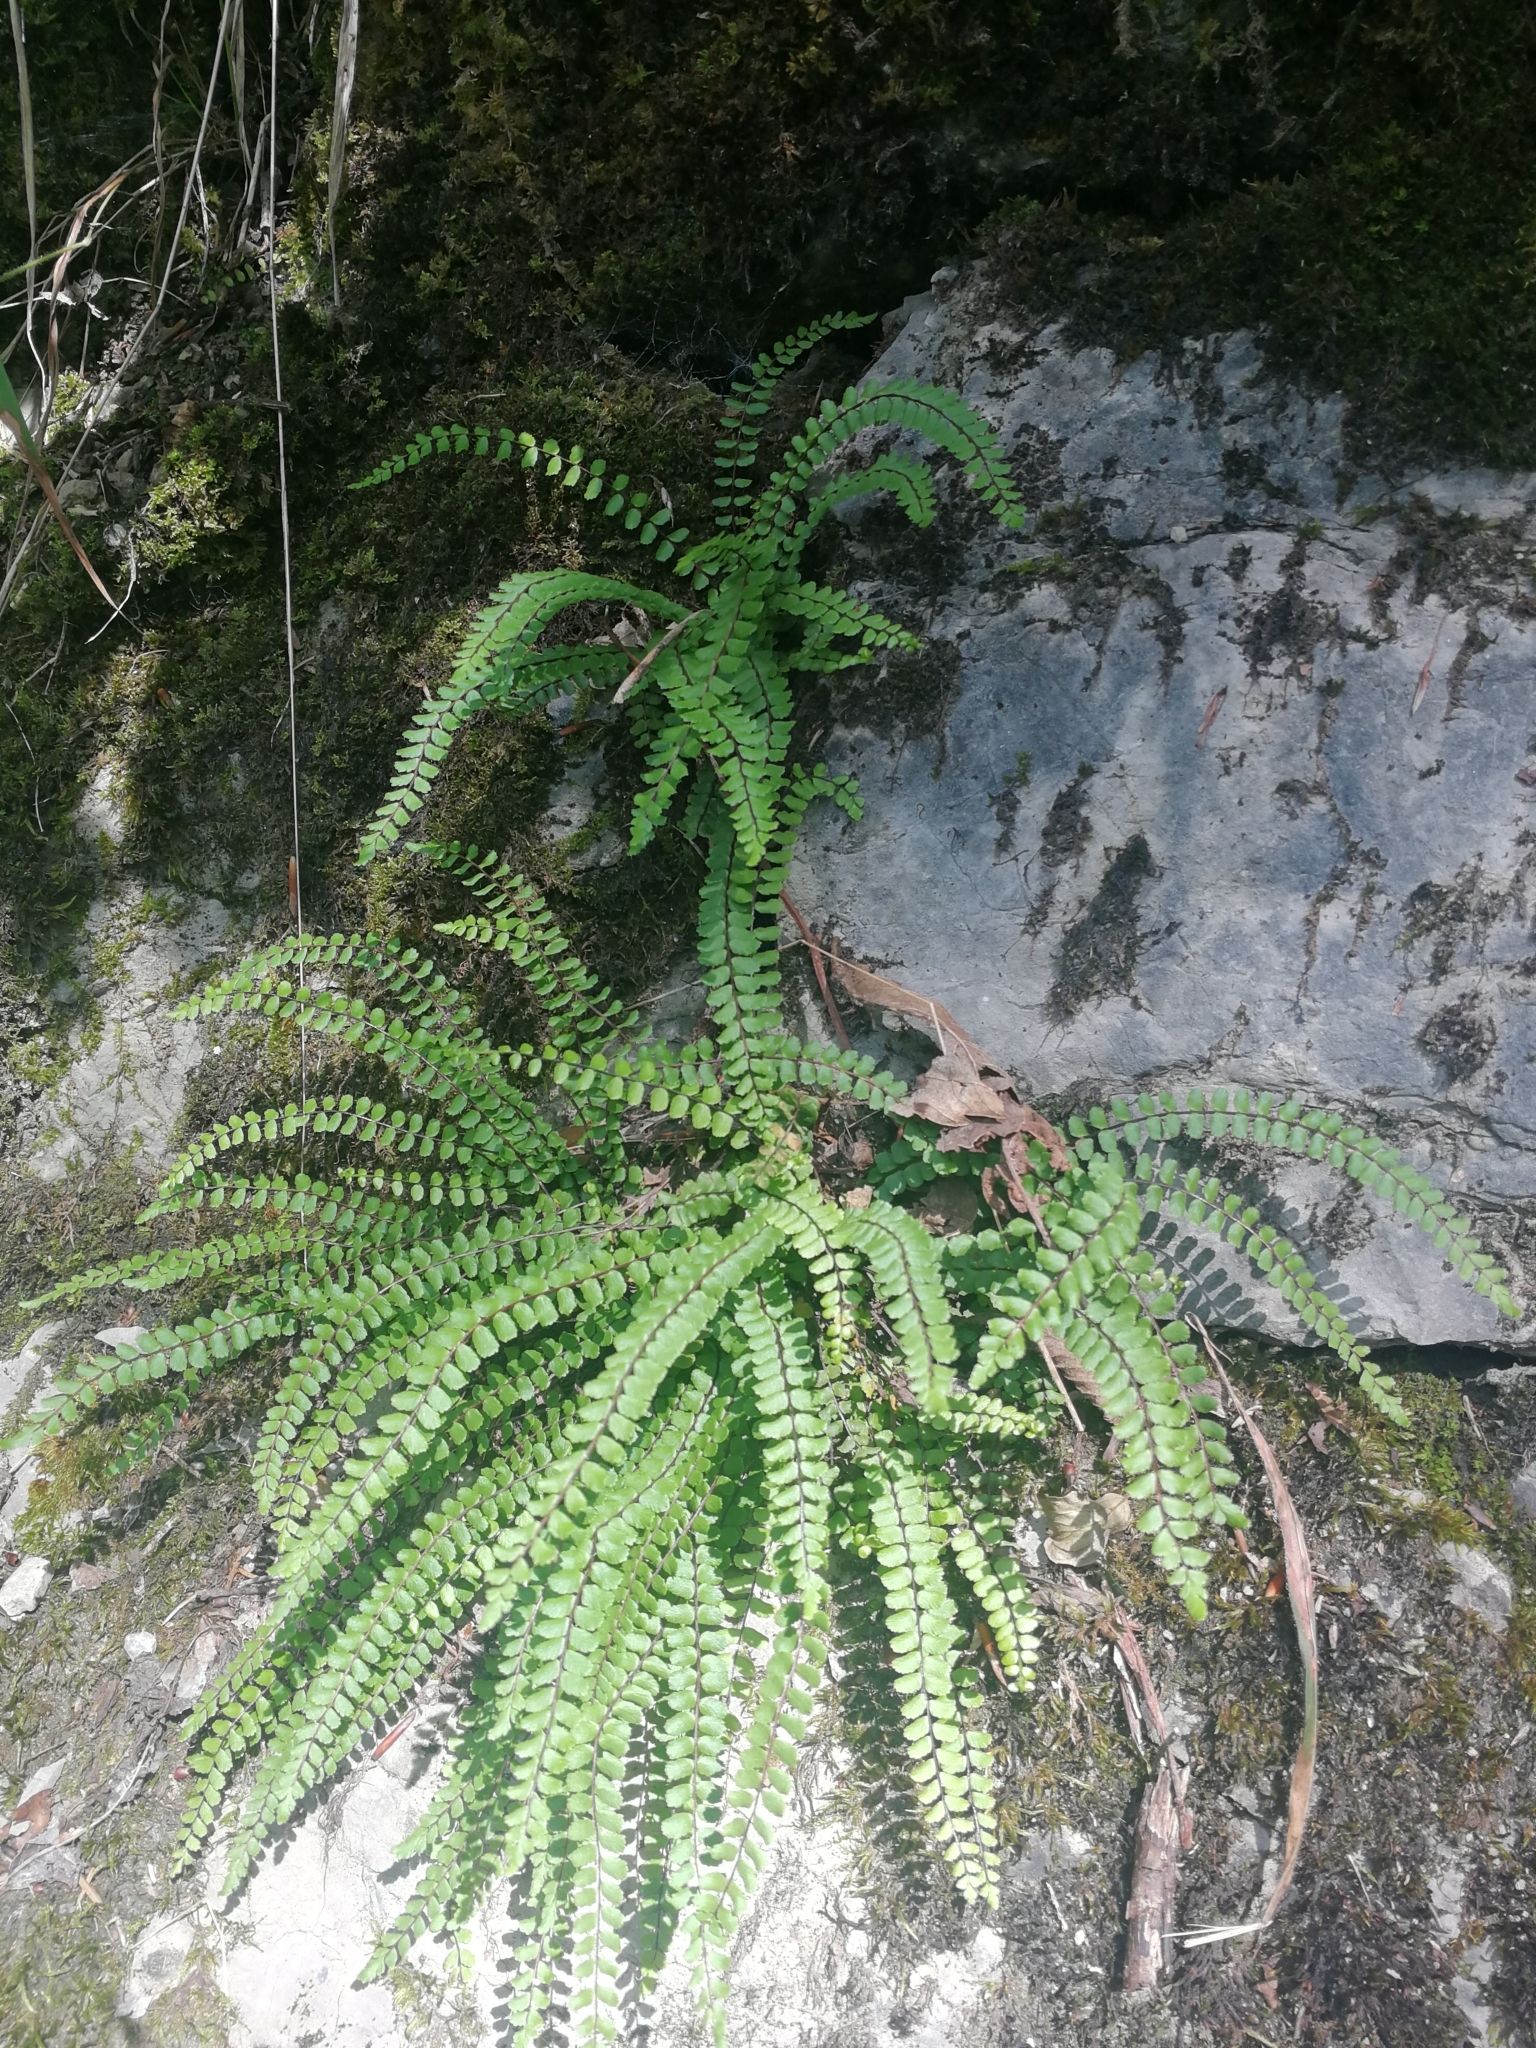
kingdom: Plantae
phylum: Tracheophyta
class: Polypodiopsida
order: Polypodiales
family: Aspleniaceae
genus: Asplenium
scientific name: Asplenium trichomanes
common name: Maidenhair spleenwort
